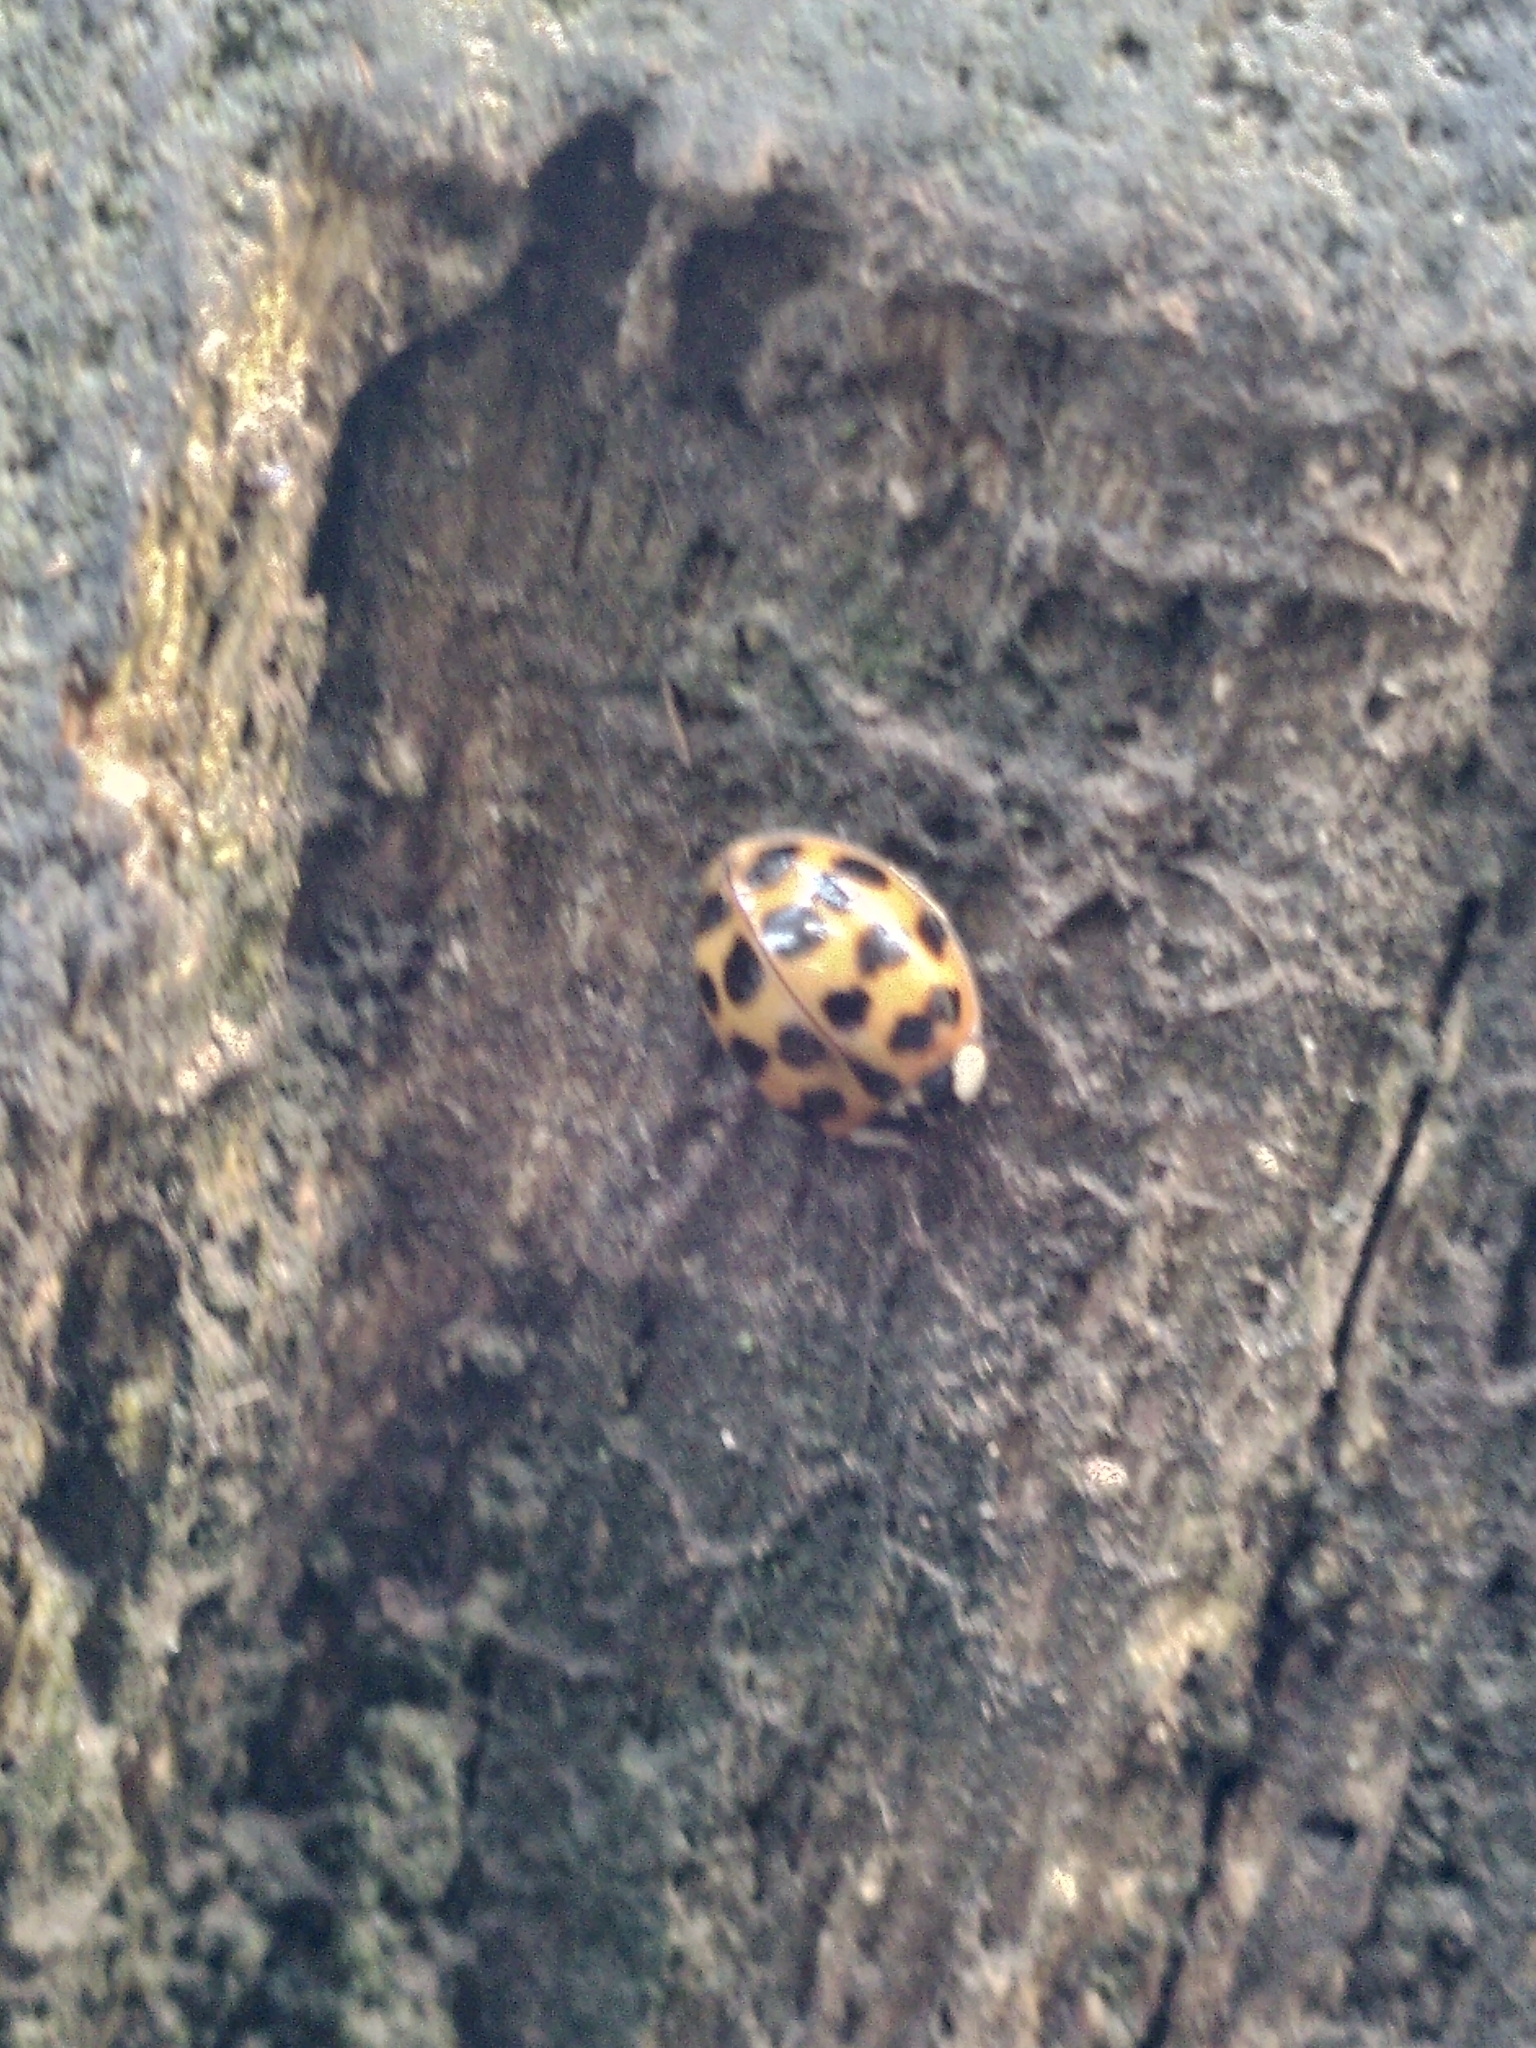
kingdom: Animalia
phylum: Arthropoda
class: Insecta
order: Coleoptera
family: Coccinellidae
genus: Harmonia
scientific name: Harmonia axyridis
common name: Harlequin ladybird
